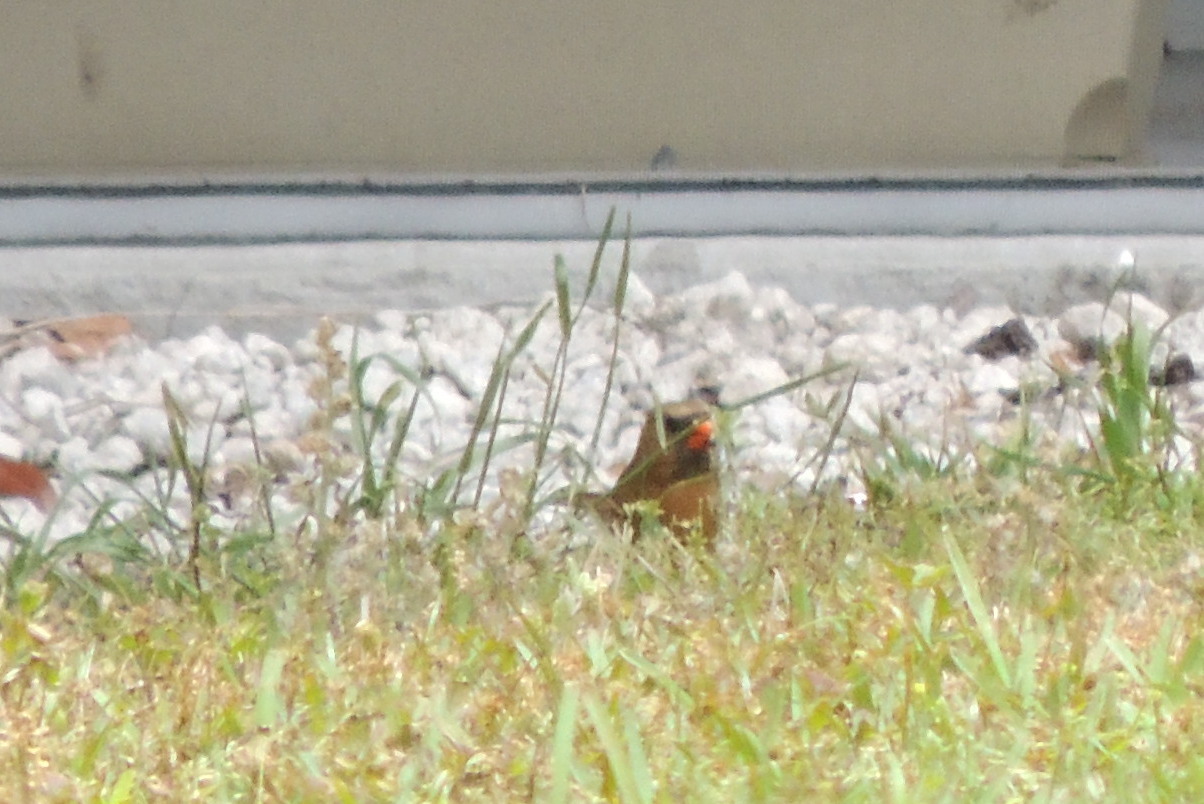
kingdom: Animalia
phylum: Chordata
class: Aves
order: Passeriformes
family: Cardinalidae
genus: Cardinalis
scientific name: Cardinalis cardinalis
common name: Northern cardinal
